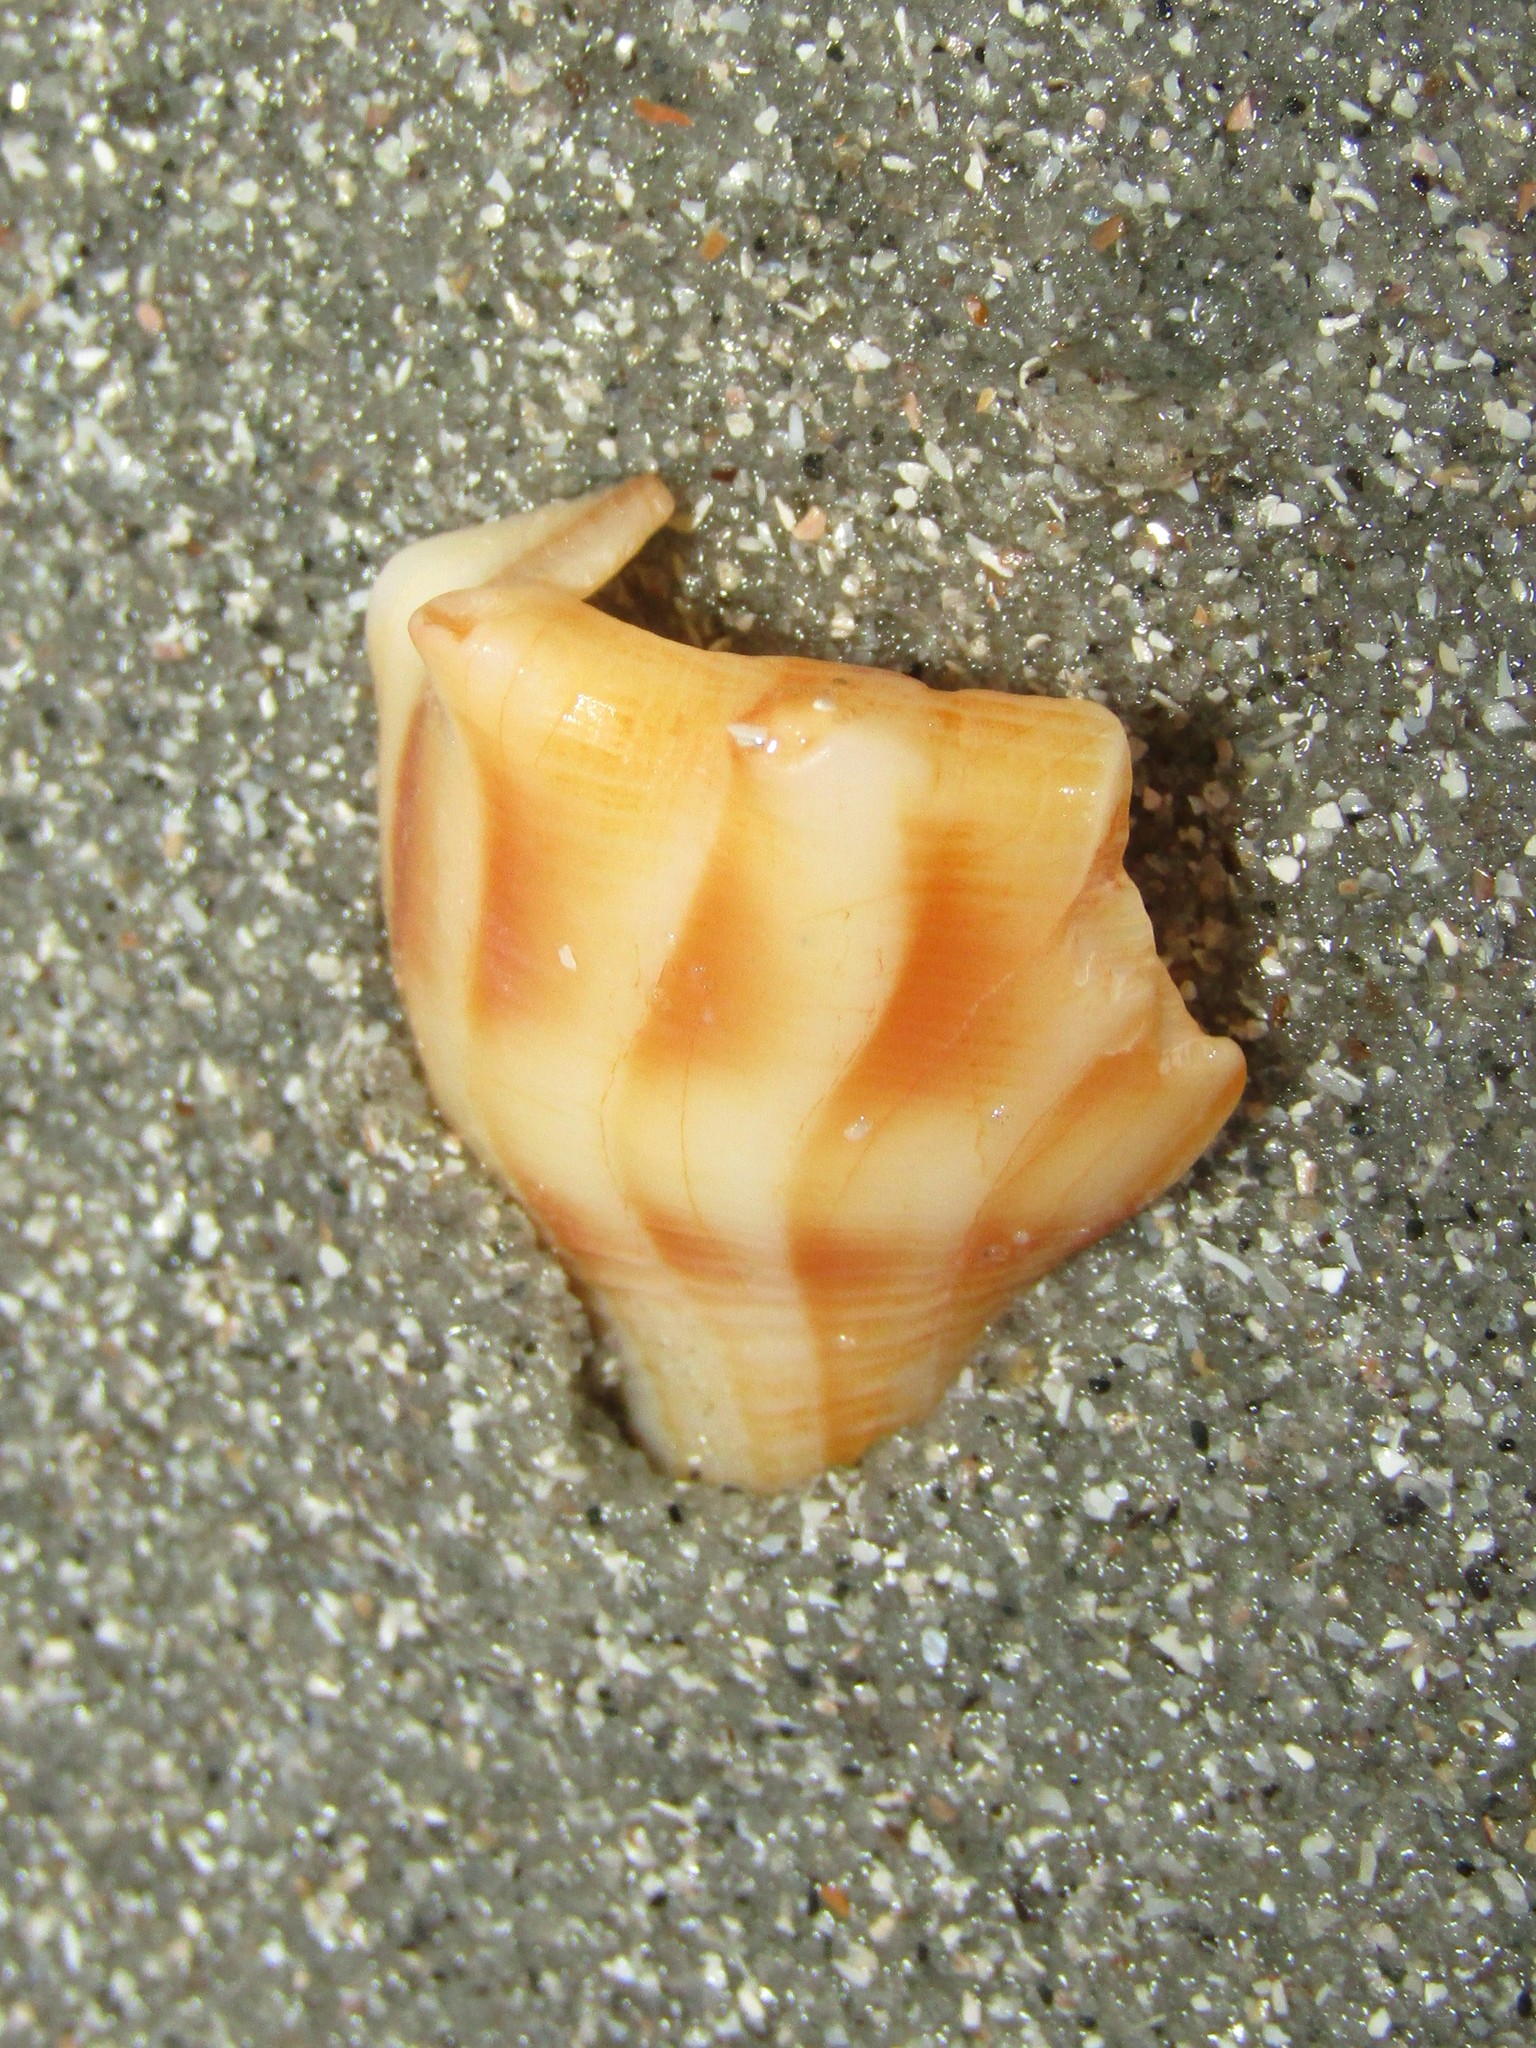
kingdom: Animalia
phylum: Mollusca
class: Gastropoda
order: Neogastropoda
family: Busyconidae
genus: Sinistrofulgur
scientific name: Sinistrofulgur sinistrum
